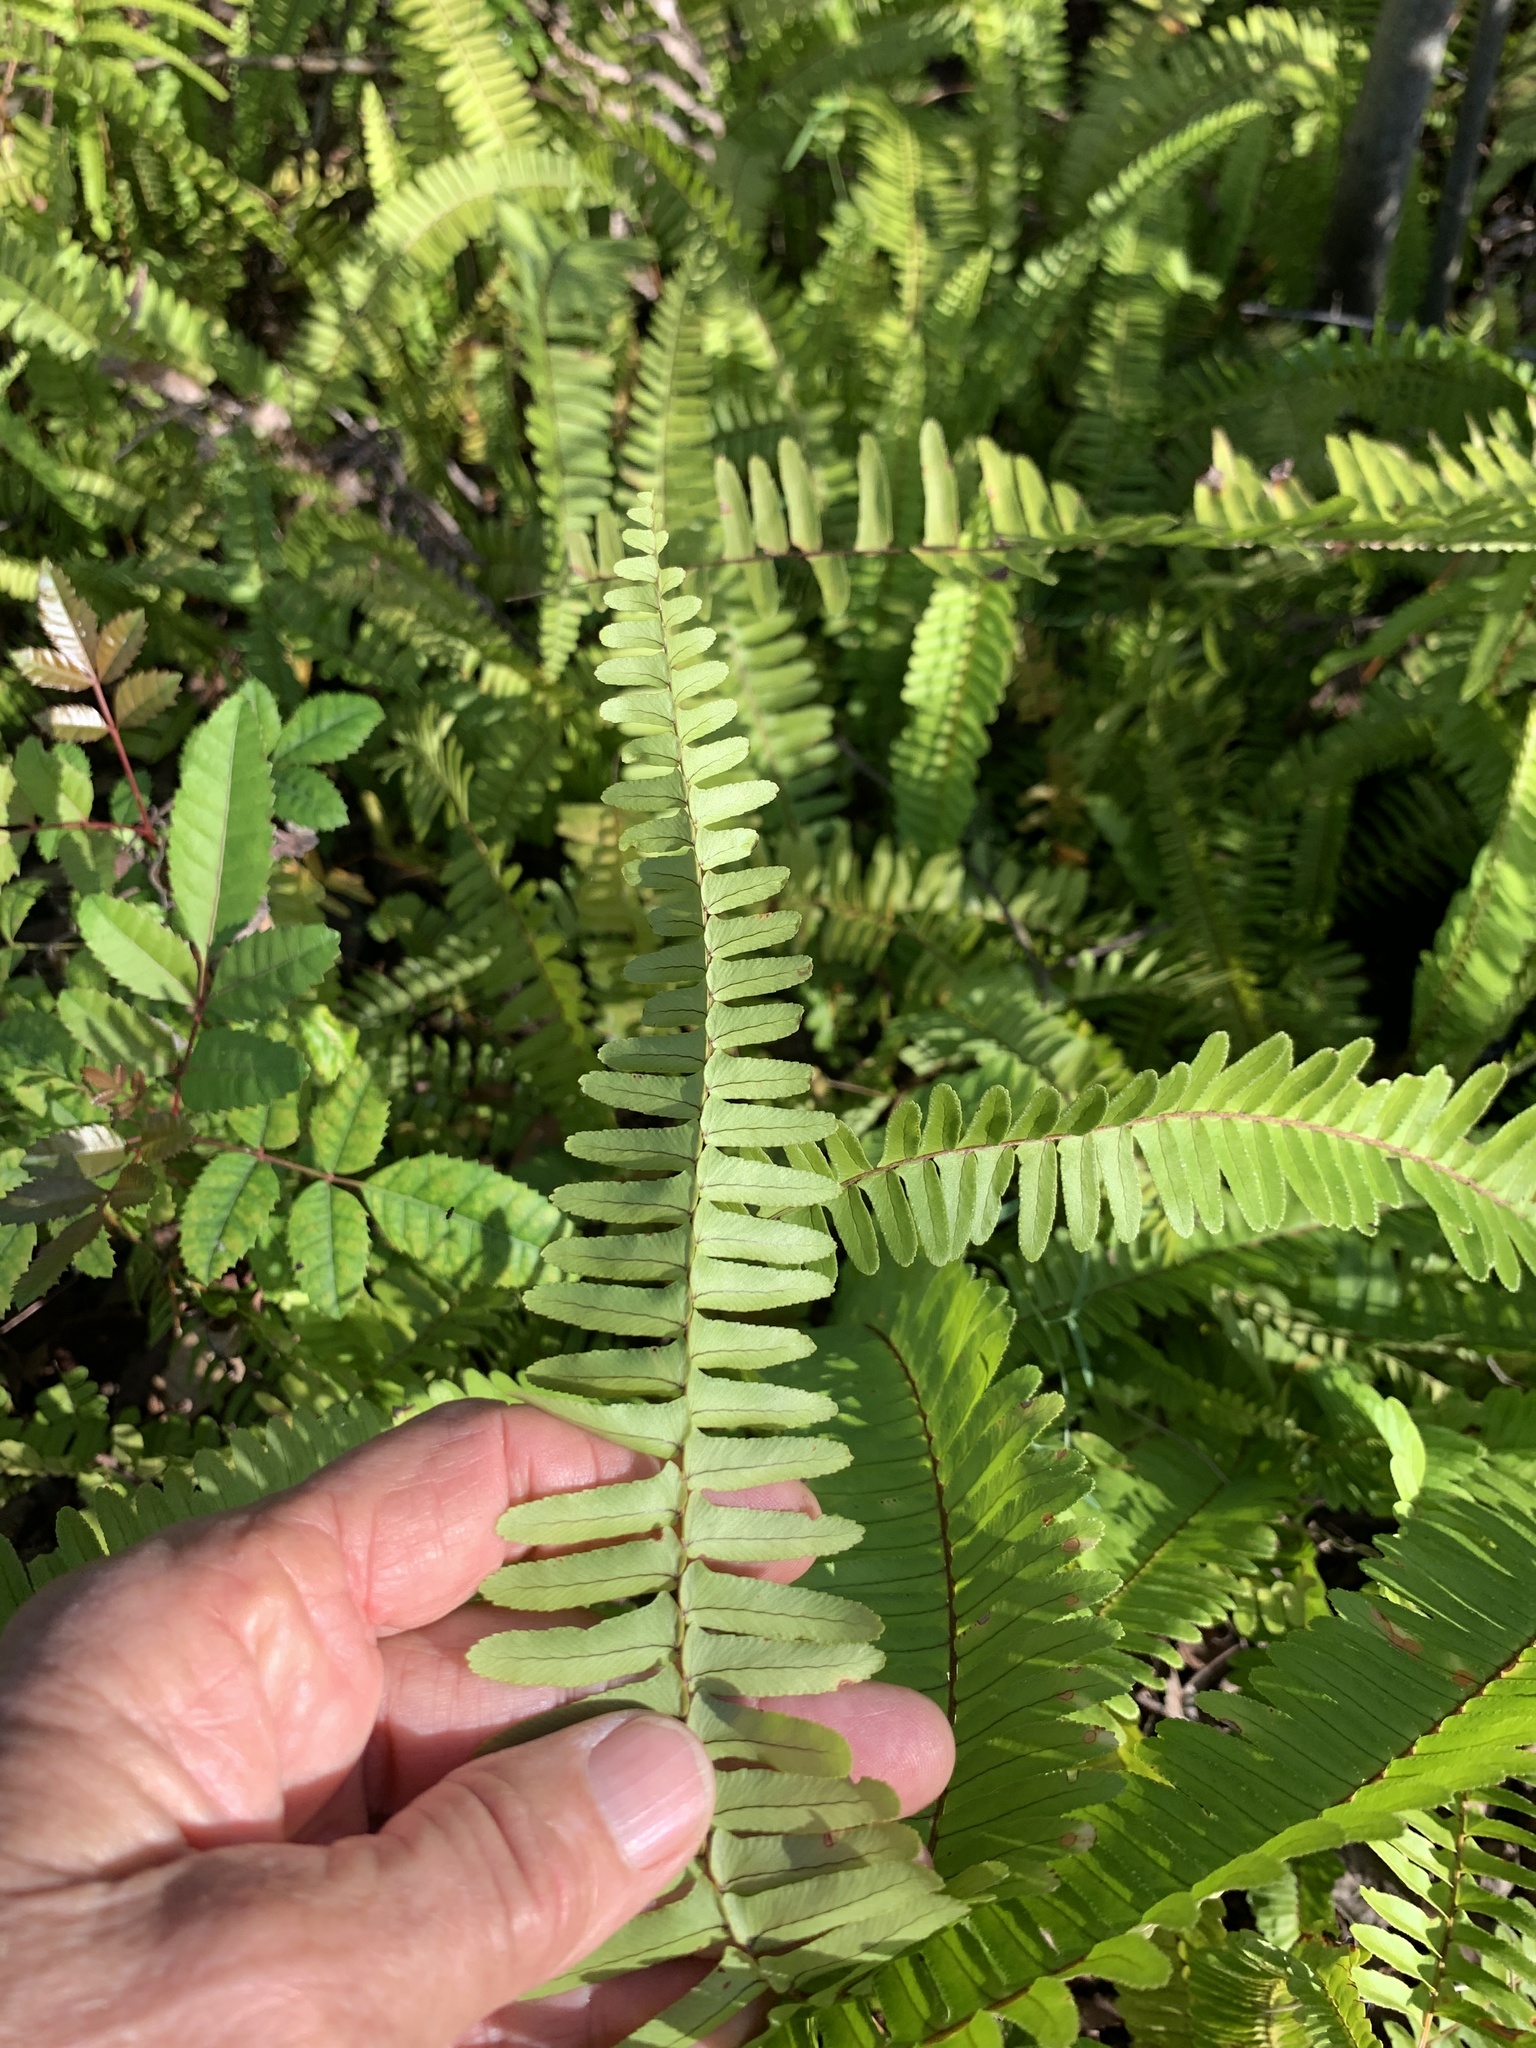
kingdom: Plantae
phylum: Tracheophyta
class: Polypodiopsida
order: Polypodiales
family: Nephrolepidaceae
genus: Nephrolepis
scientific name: Nephrolepis cordifolia
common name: Narrow swordfern
